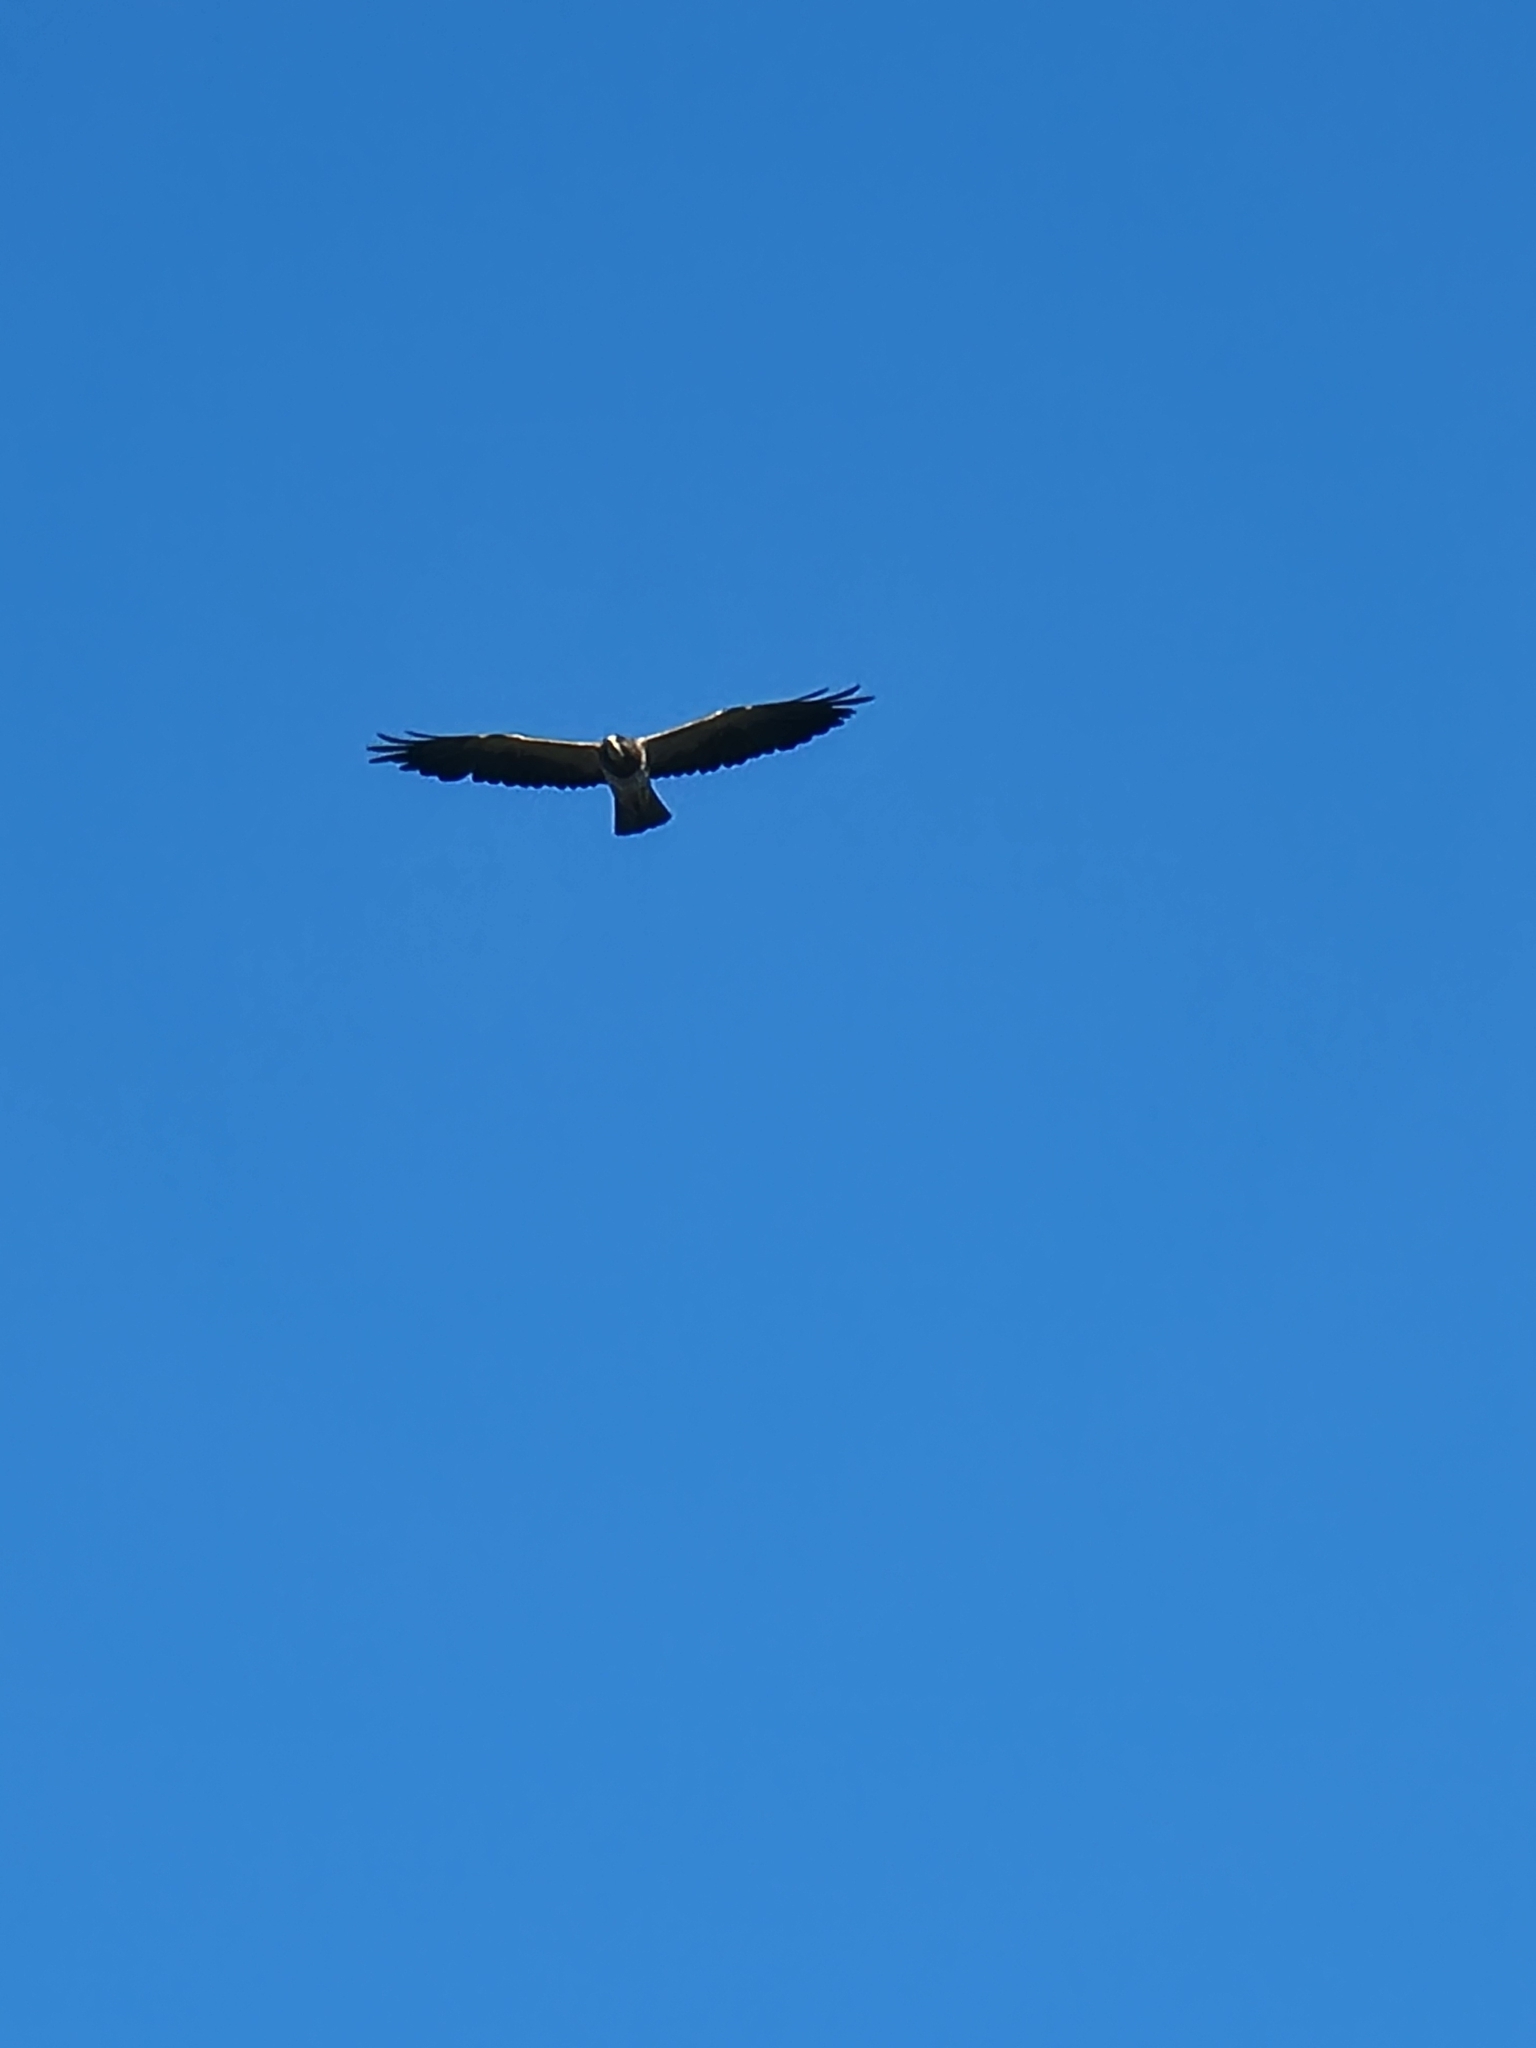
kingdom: Animalia
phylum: Chordata
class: Aves
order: Accipitriformes
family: Accipitridae
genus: Buteo
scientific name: Buteo swainsoni
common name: Swainson's hawk
